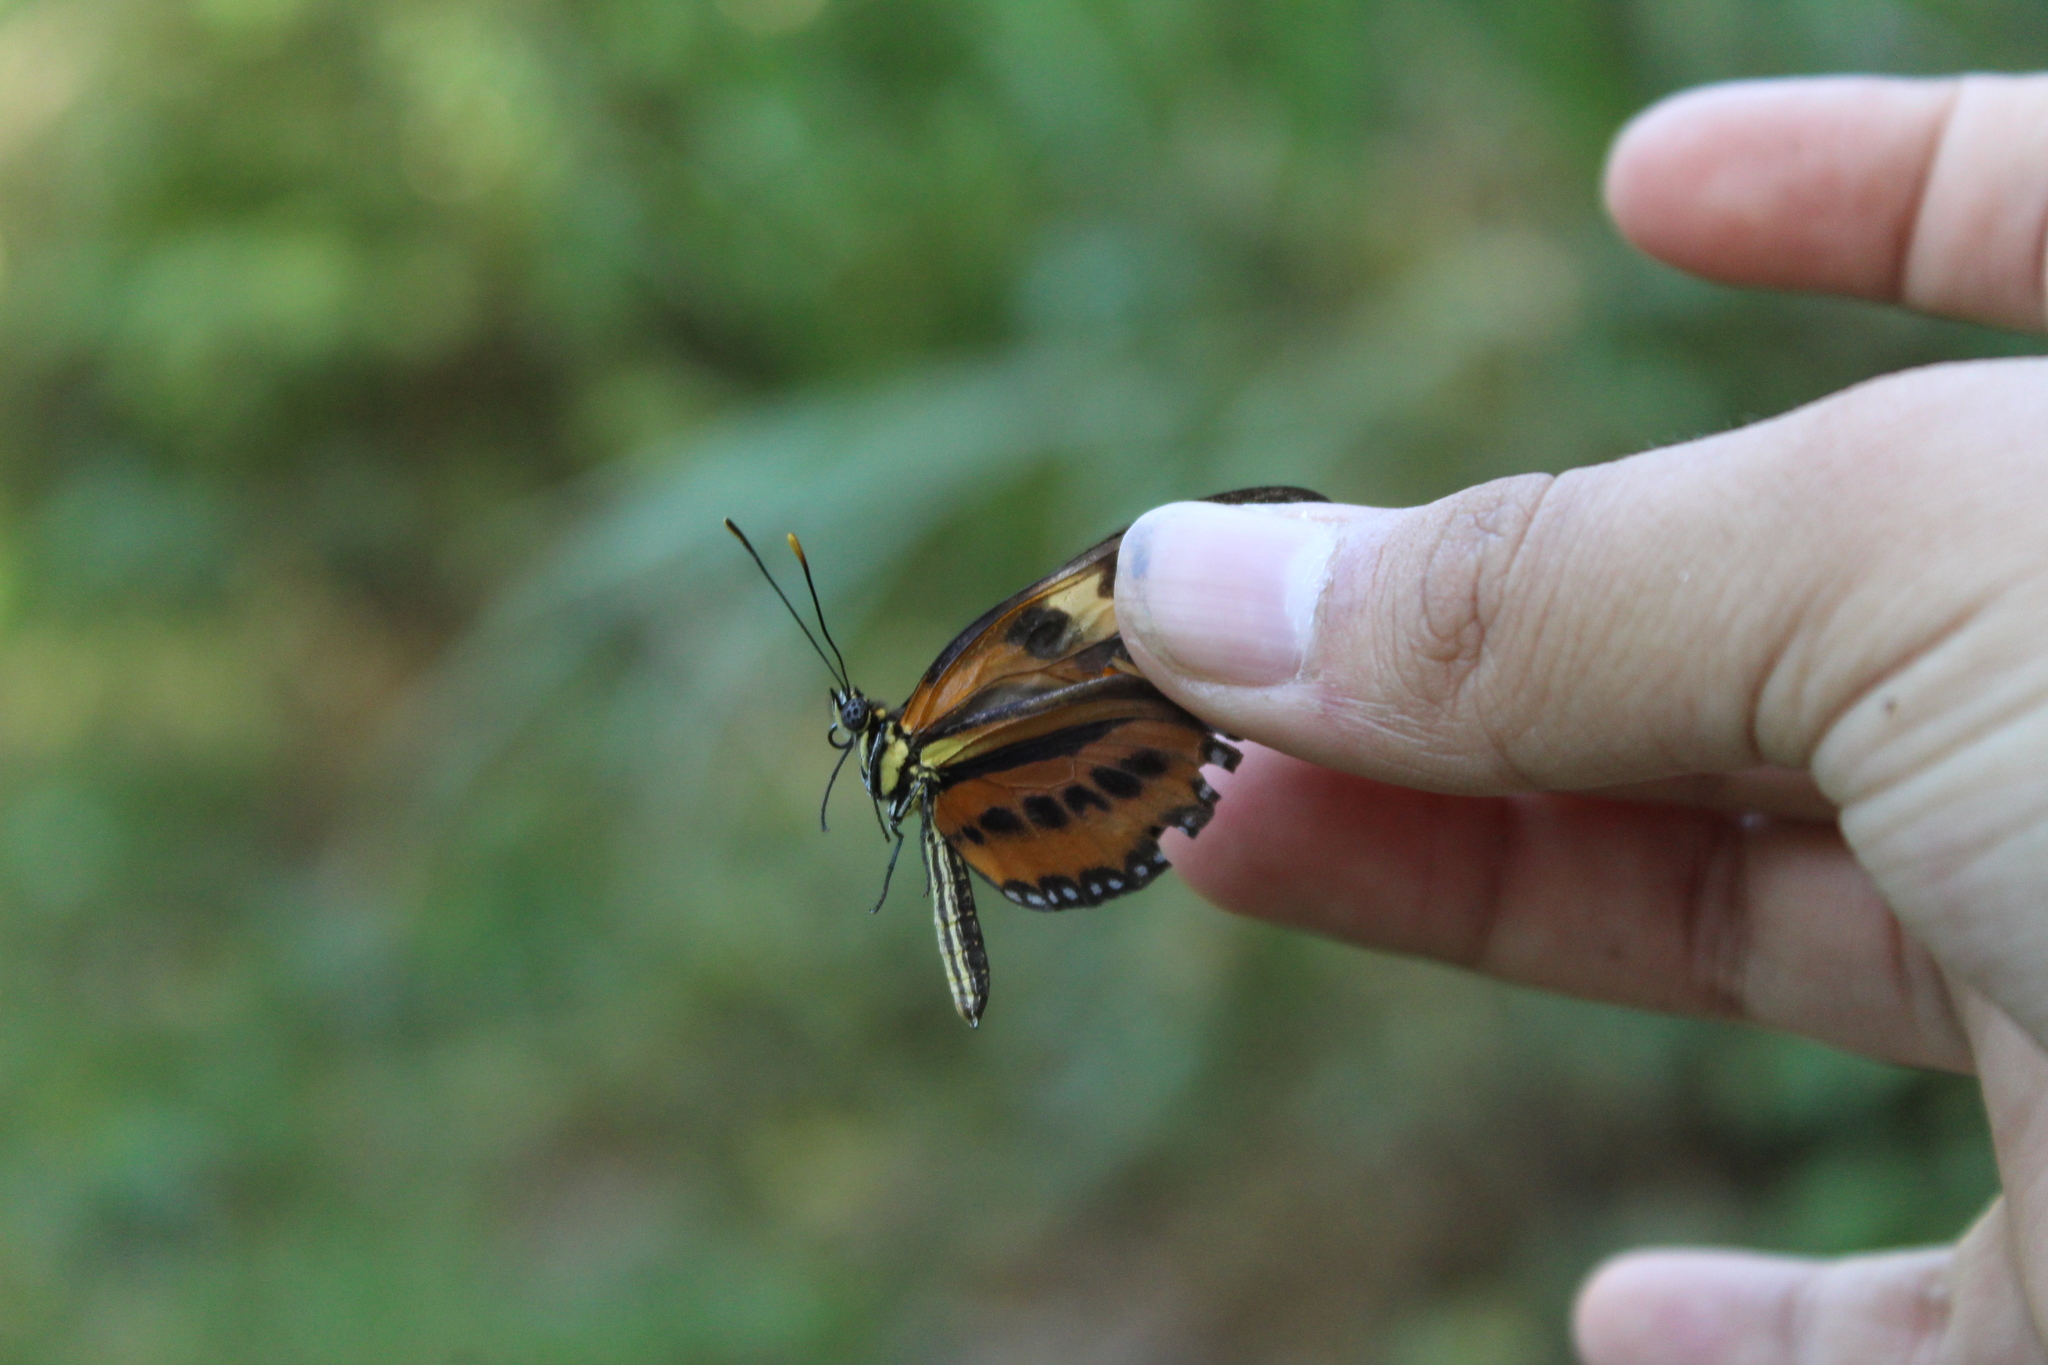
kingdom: Animalia
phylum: Arthropoda
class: Insecta
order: Lepidoptera
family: Nymphalidae
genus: Eueides
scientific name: Eueides isabella
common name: Isabella's longwing
